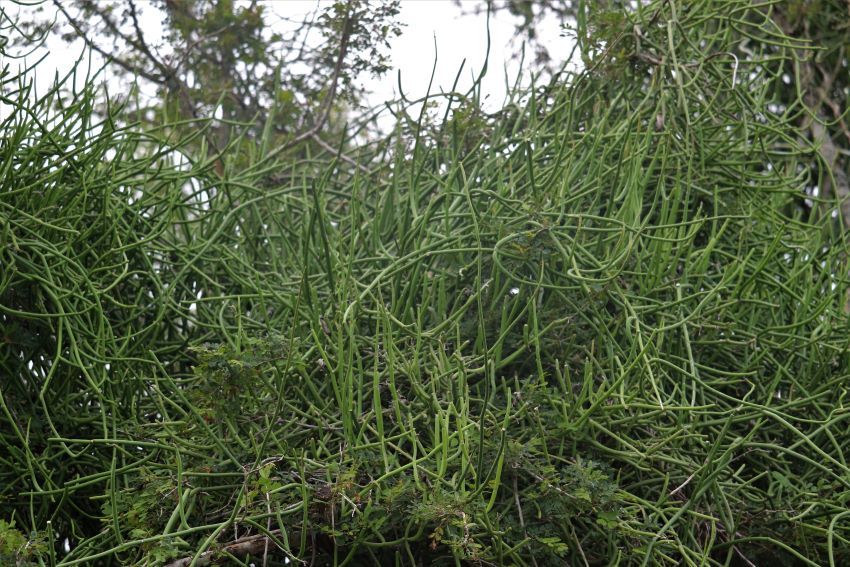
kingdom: Plantae
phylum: Tracheophyta
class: Magnoliopsida
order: Gentianales
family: Apocynaceae
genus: Cynanchum
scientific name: Cynanchum viminale
